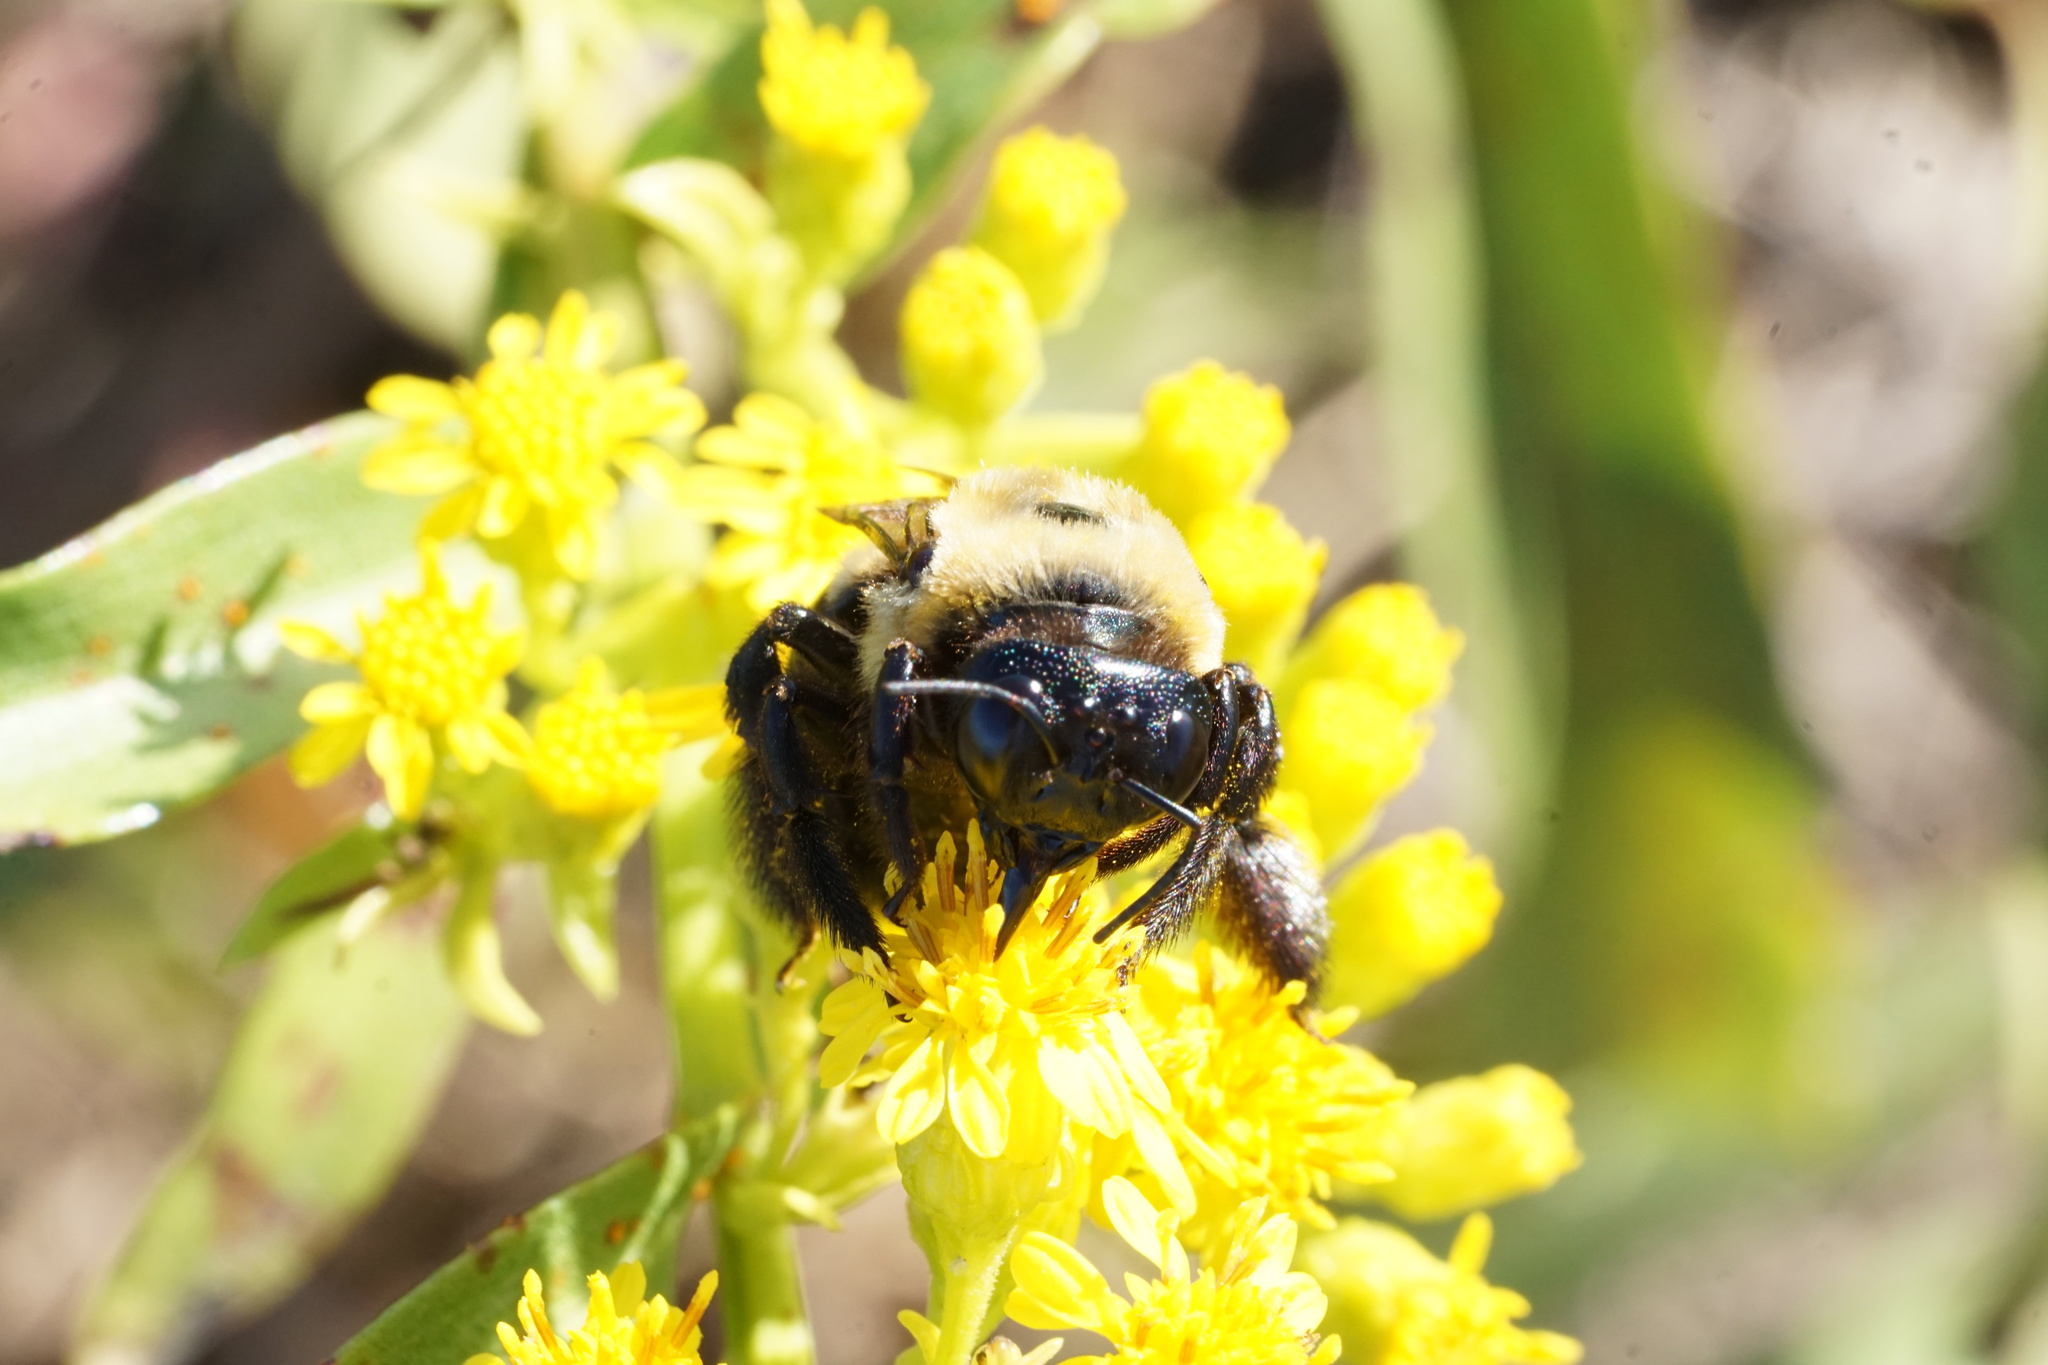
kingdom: Animalia
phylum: Arthropoda
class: Insecta
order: Hymenoptera
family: Apidae
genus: Xylocopa
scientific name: Xylocopa virginica
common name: Carpenter bee
